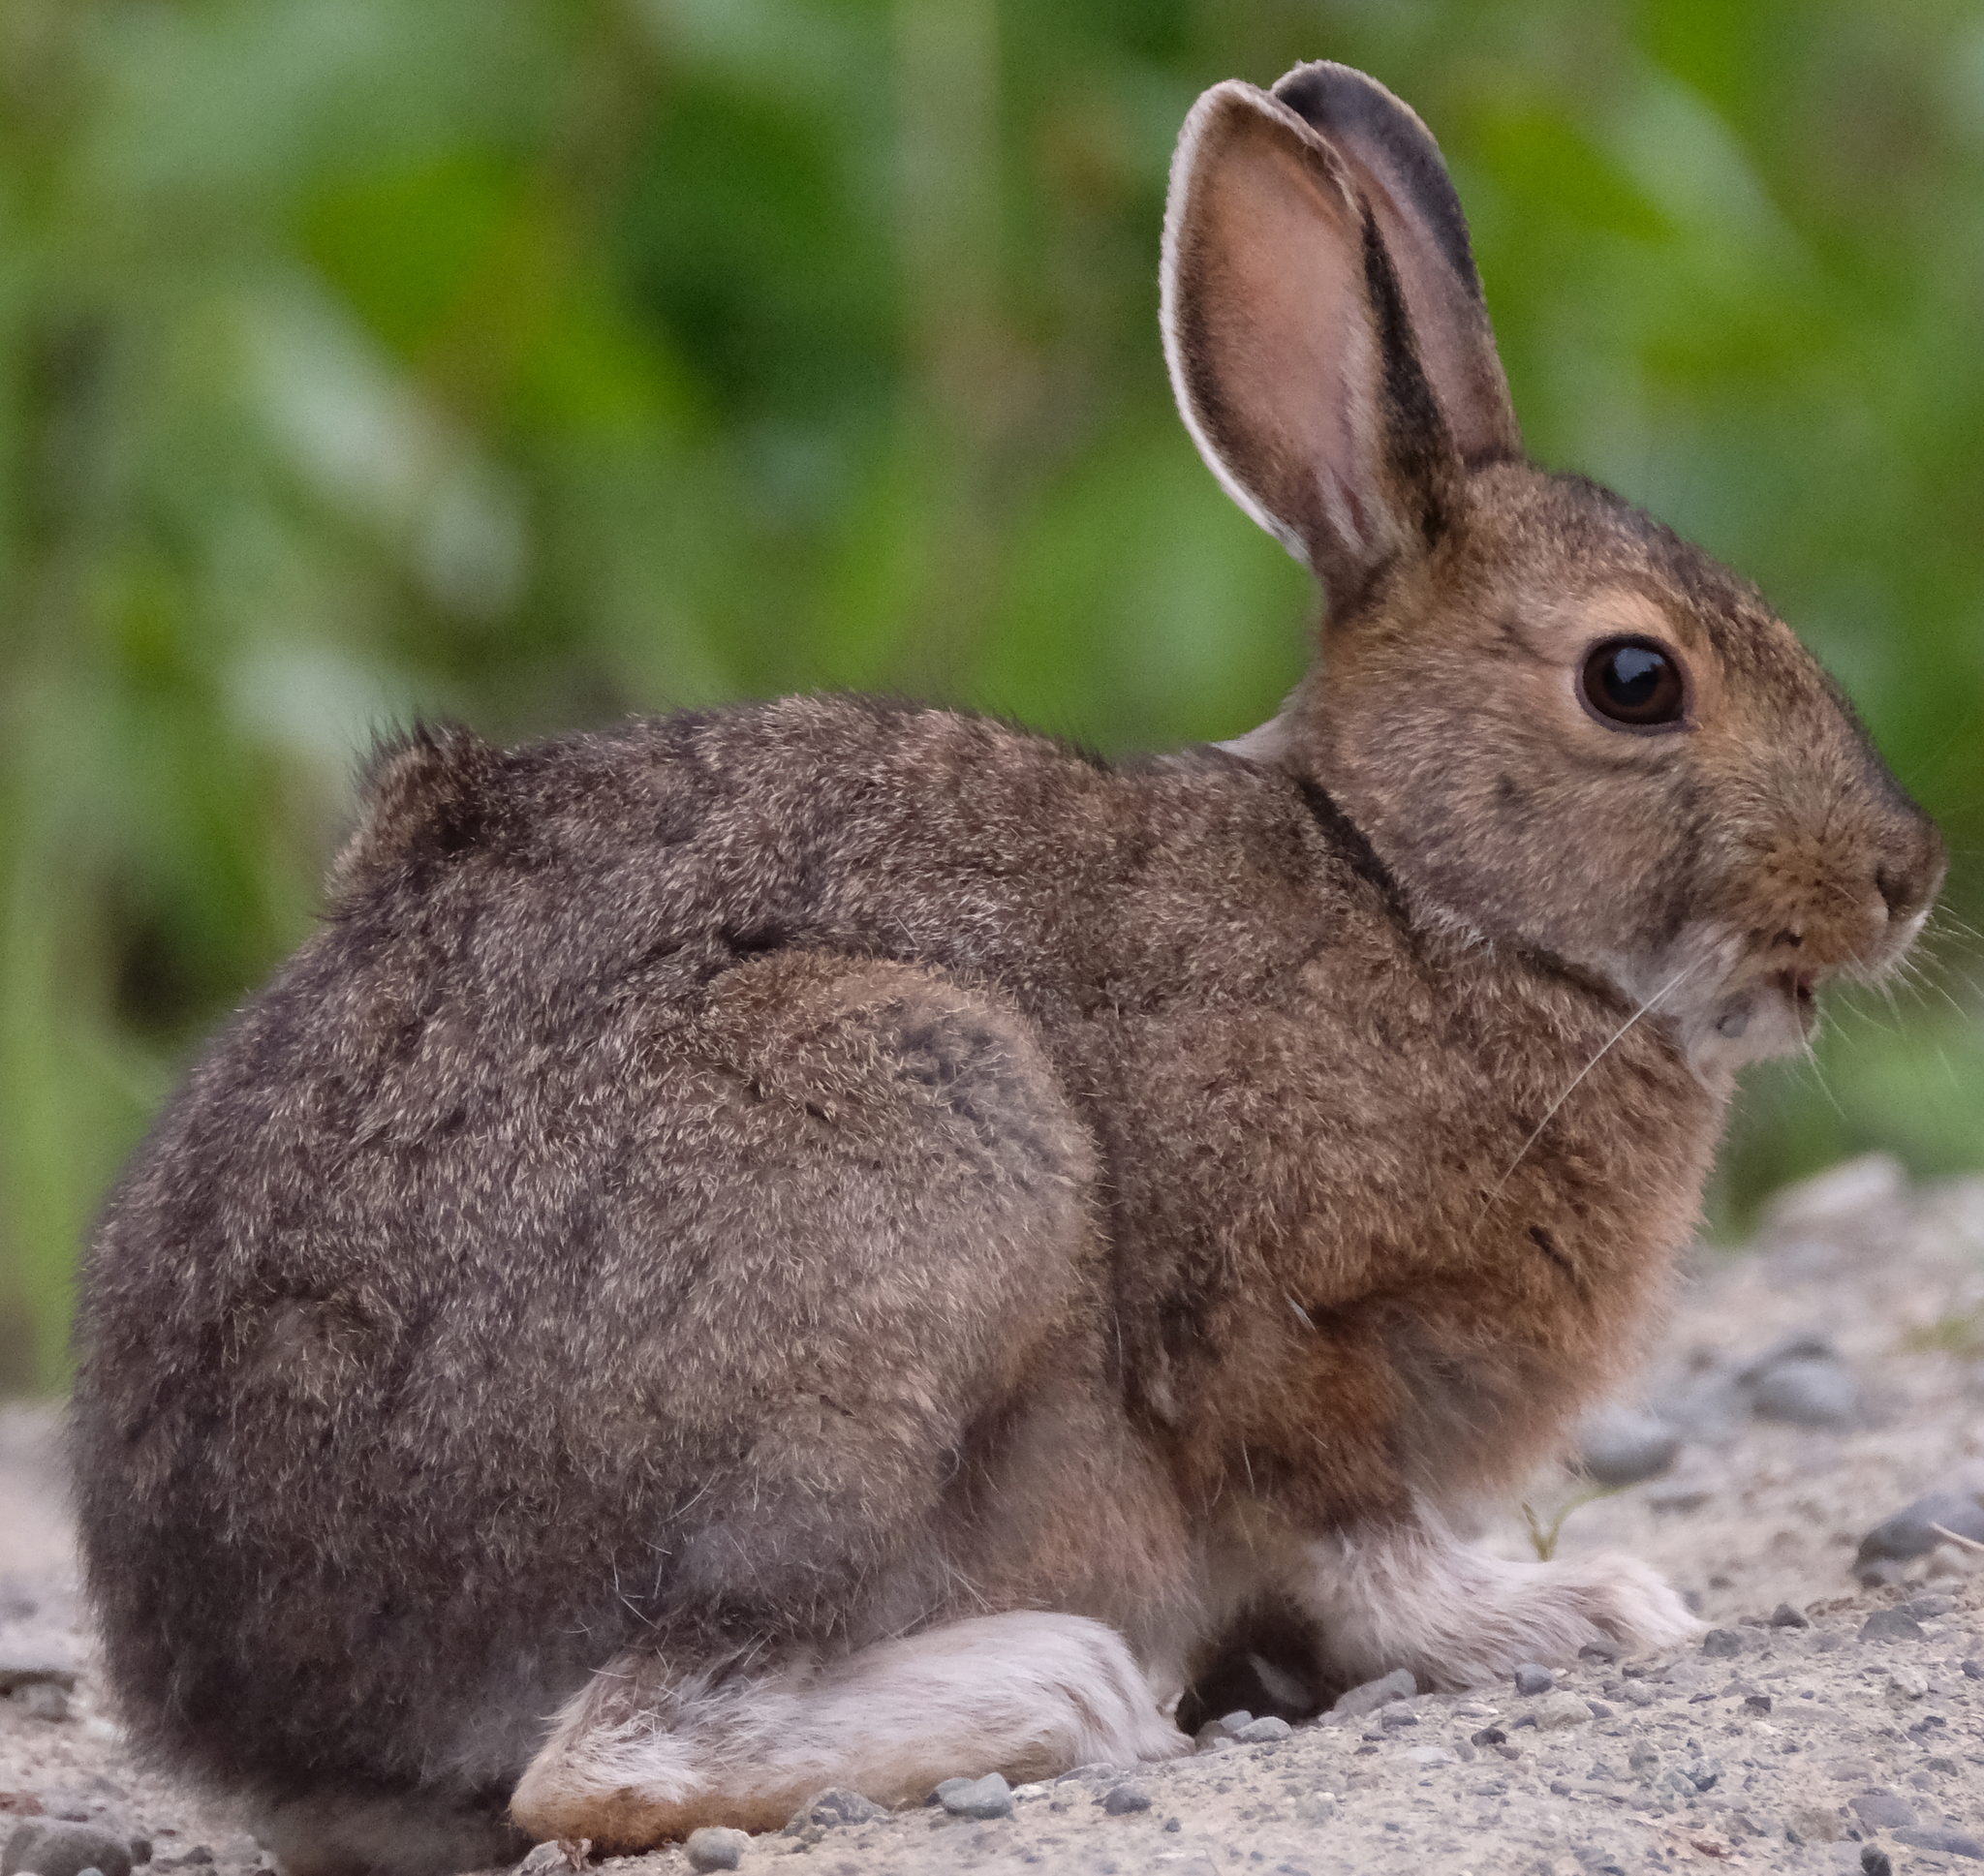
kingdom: Animalia
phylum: Chordata
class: Mammalia
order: Lagomorpha
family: Leporidae
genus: Lepus
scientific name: Lepus americanus
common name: Snowshoe hare
